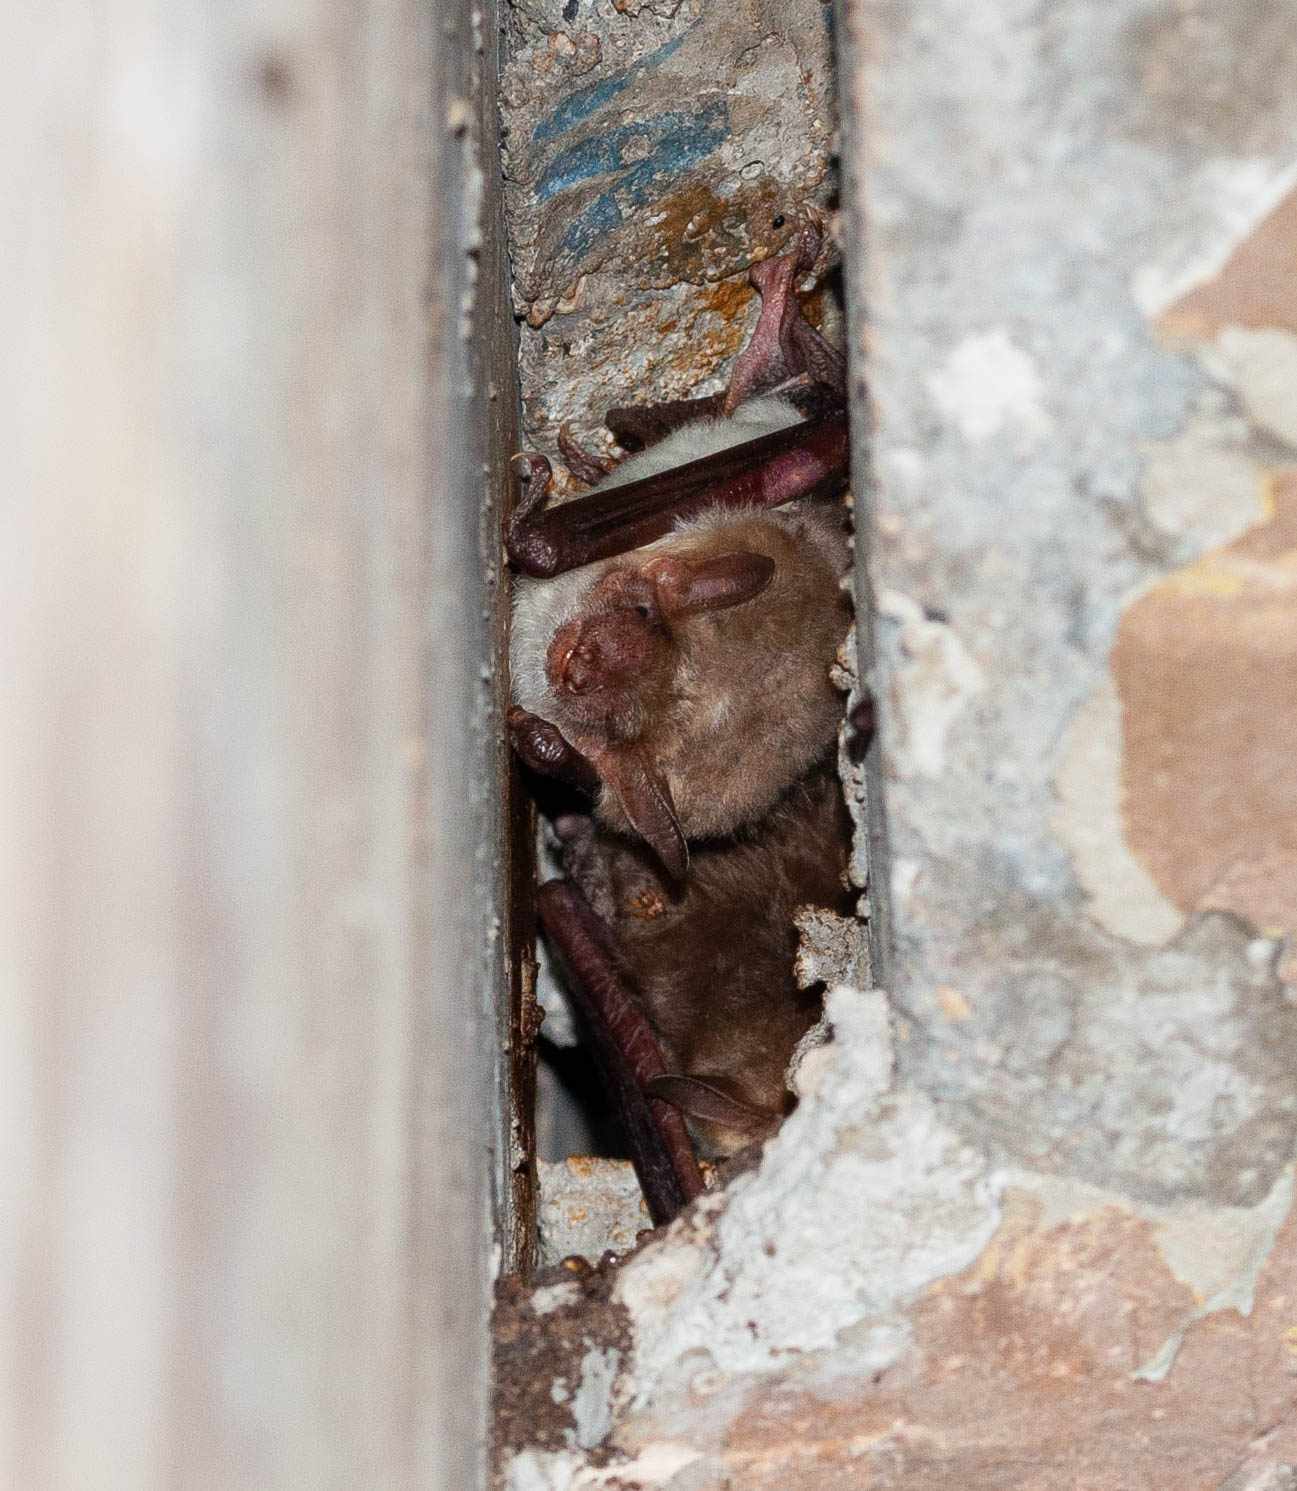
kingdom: Animalia
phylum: Chordata
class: Mammalia
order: Chiroptera
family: Vespertilionidae
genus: Myotis
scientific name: Myotis
